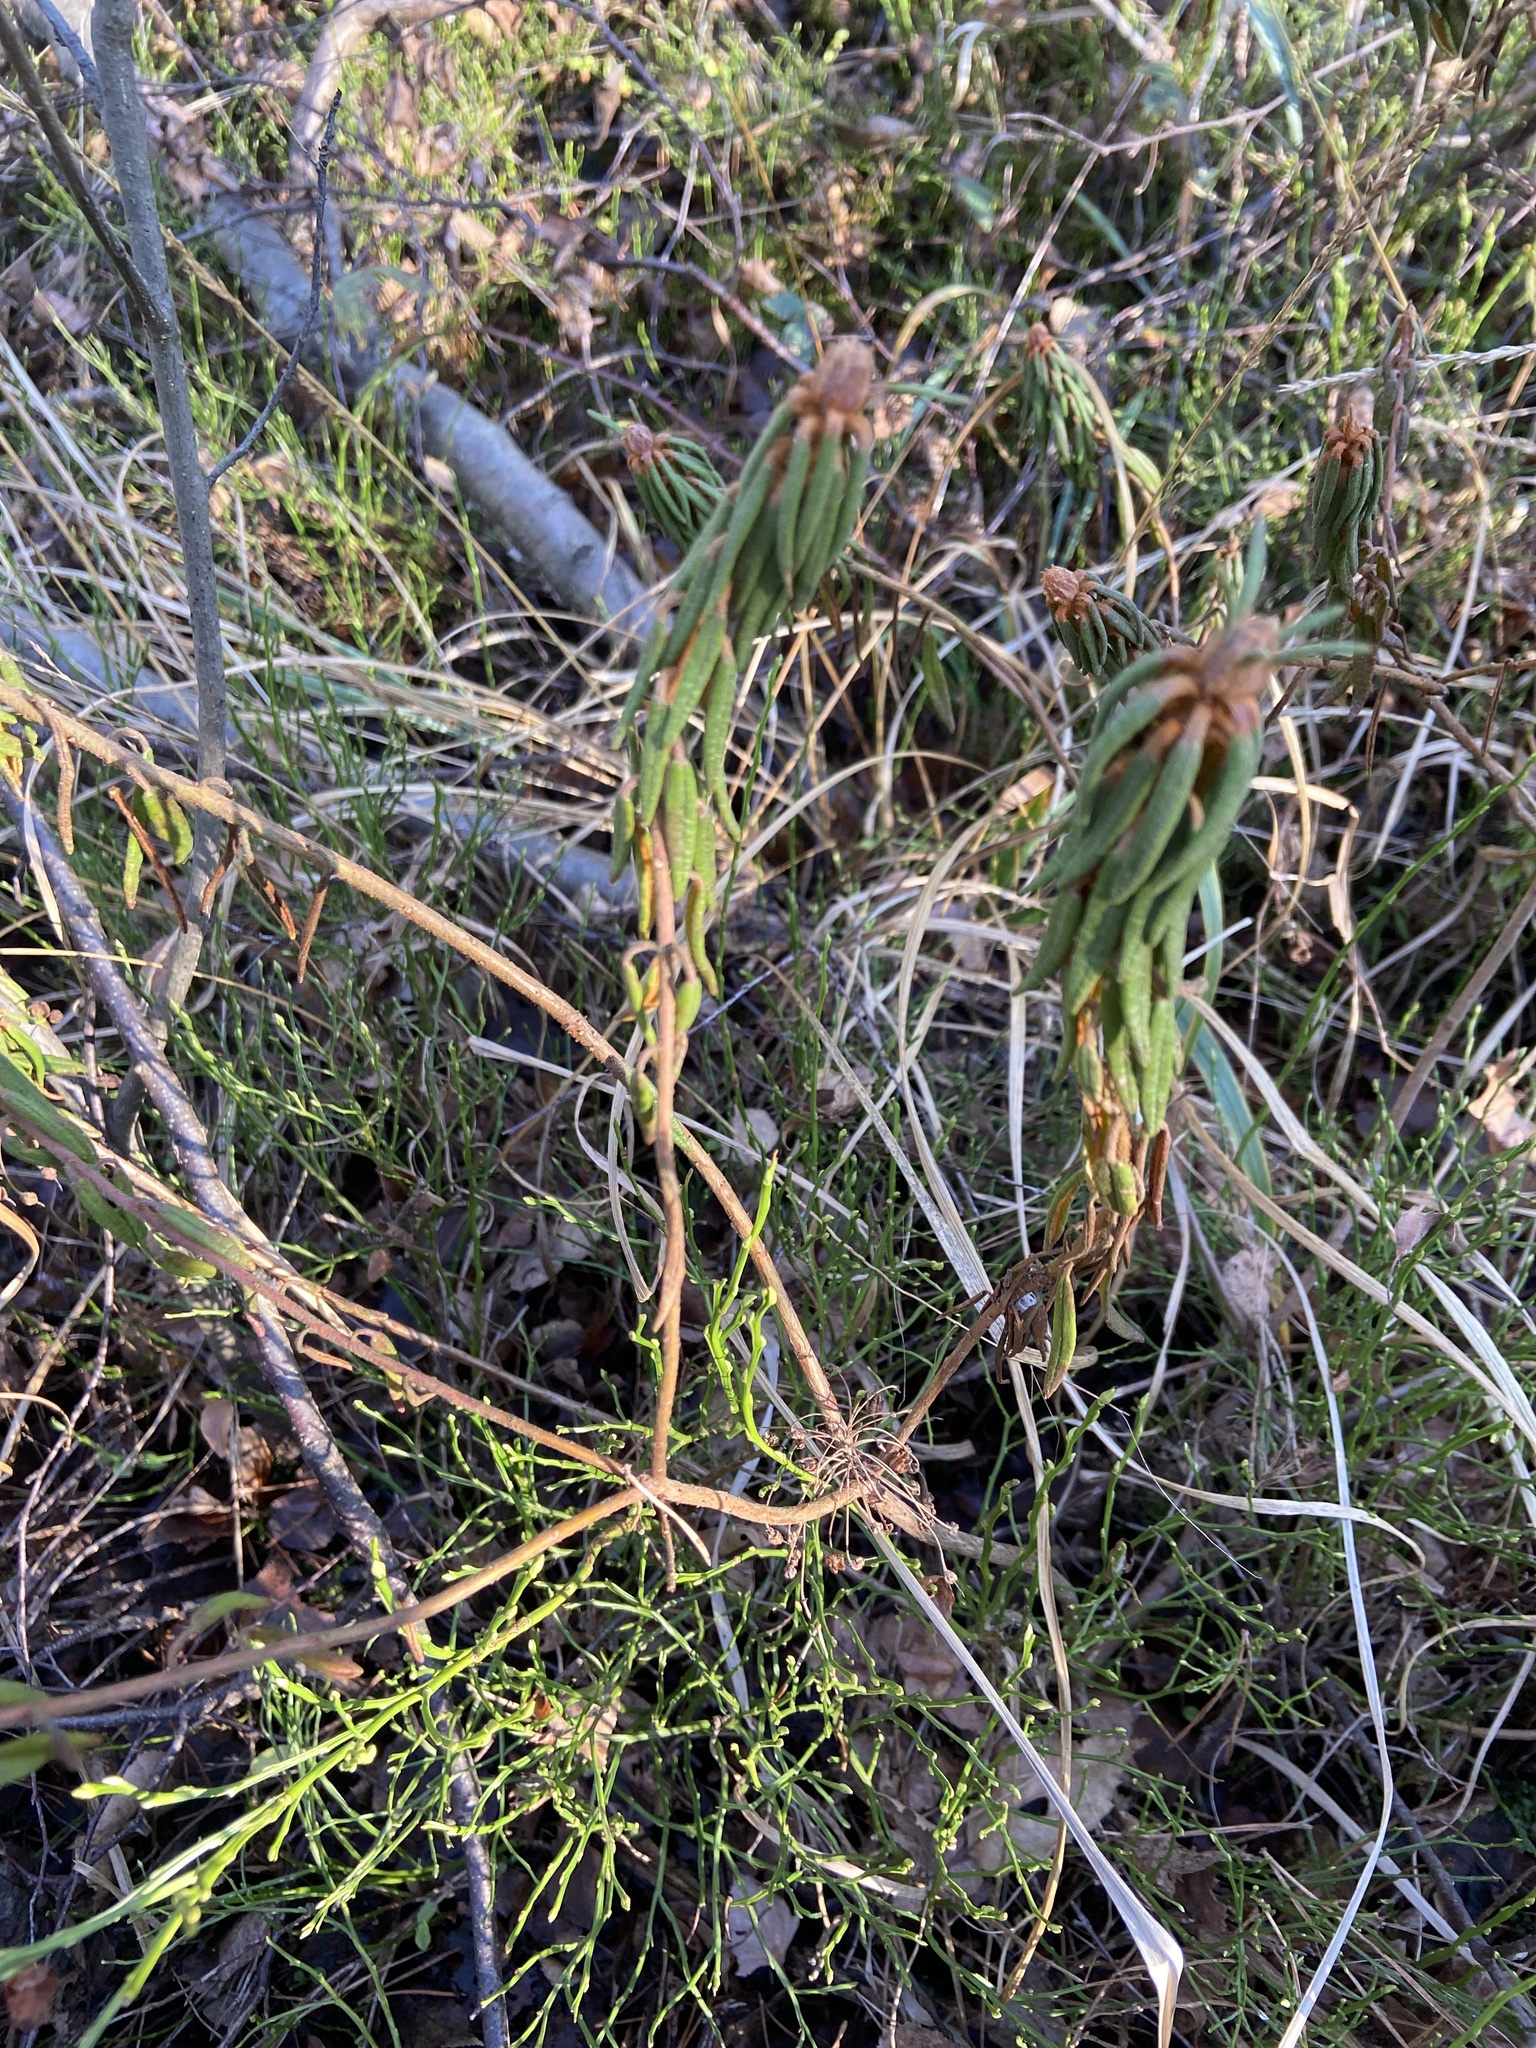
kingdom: Plantae
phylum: Tracheophyta
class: Magnoliopsida
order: Ericales
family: Ericaceae
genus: Rhododendron
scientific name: Rhododendron tomentosum
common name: Marsh labrador tea
